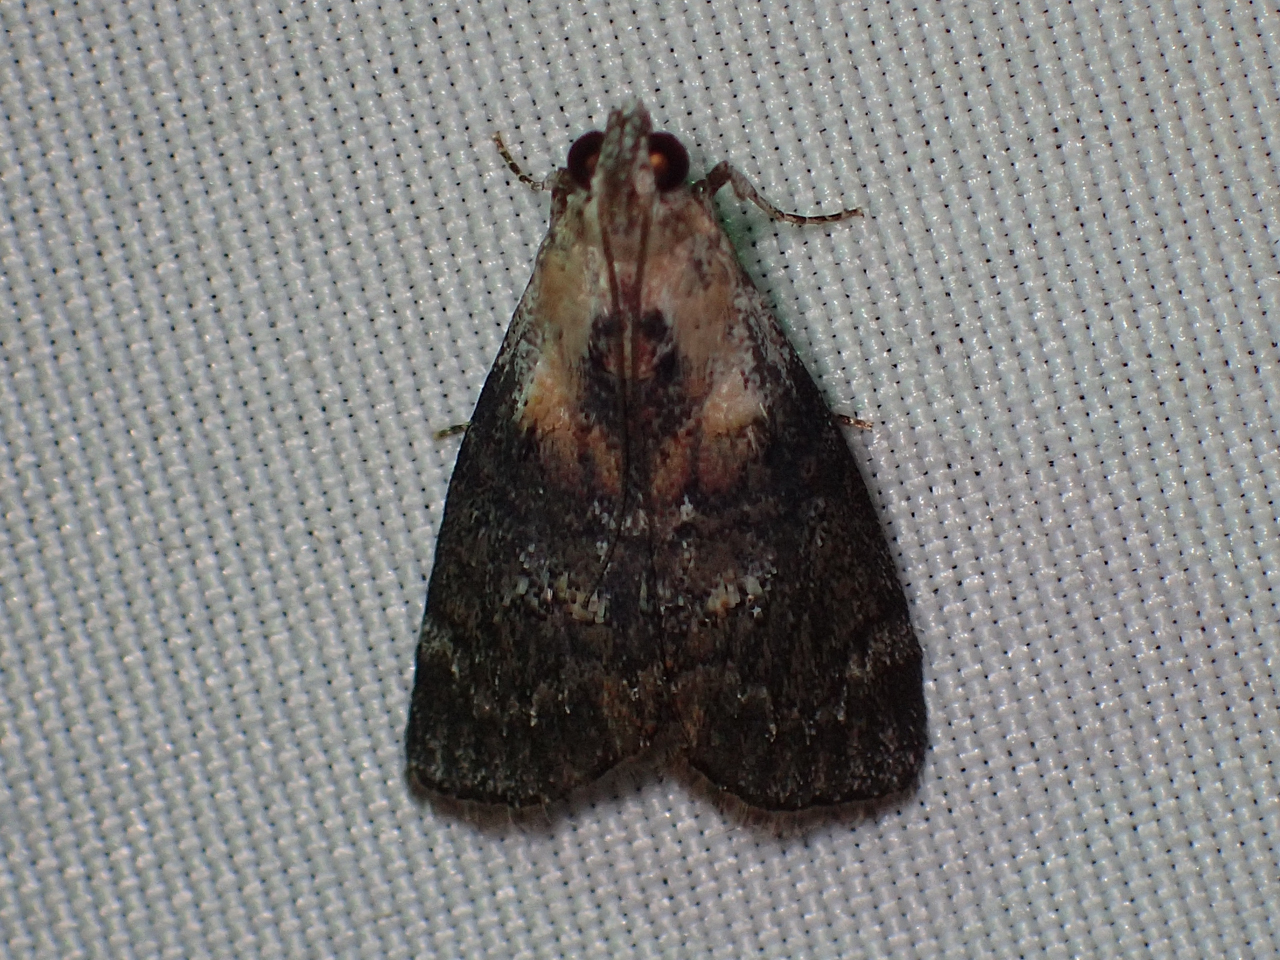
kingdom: Animalia
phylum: Arthropoda
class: Insecta
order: Lepidoptera
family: Pyralidae
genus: Pococera
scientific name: Pococera expandens
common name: Striped oak webworm moth
